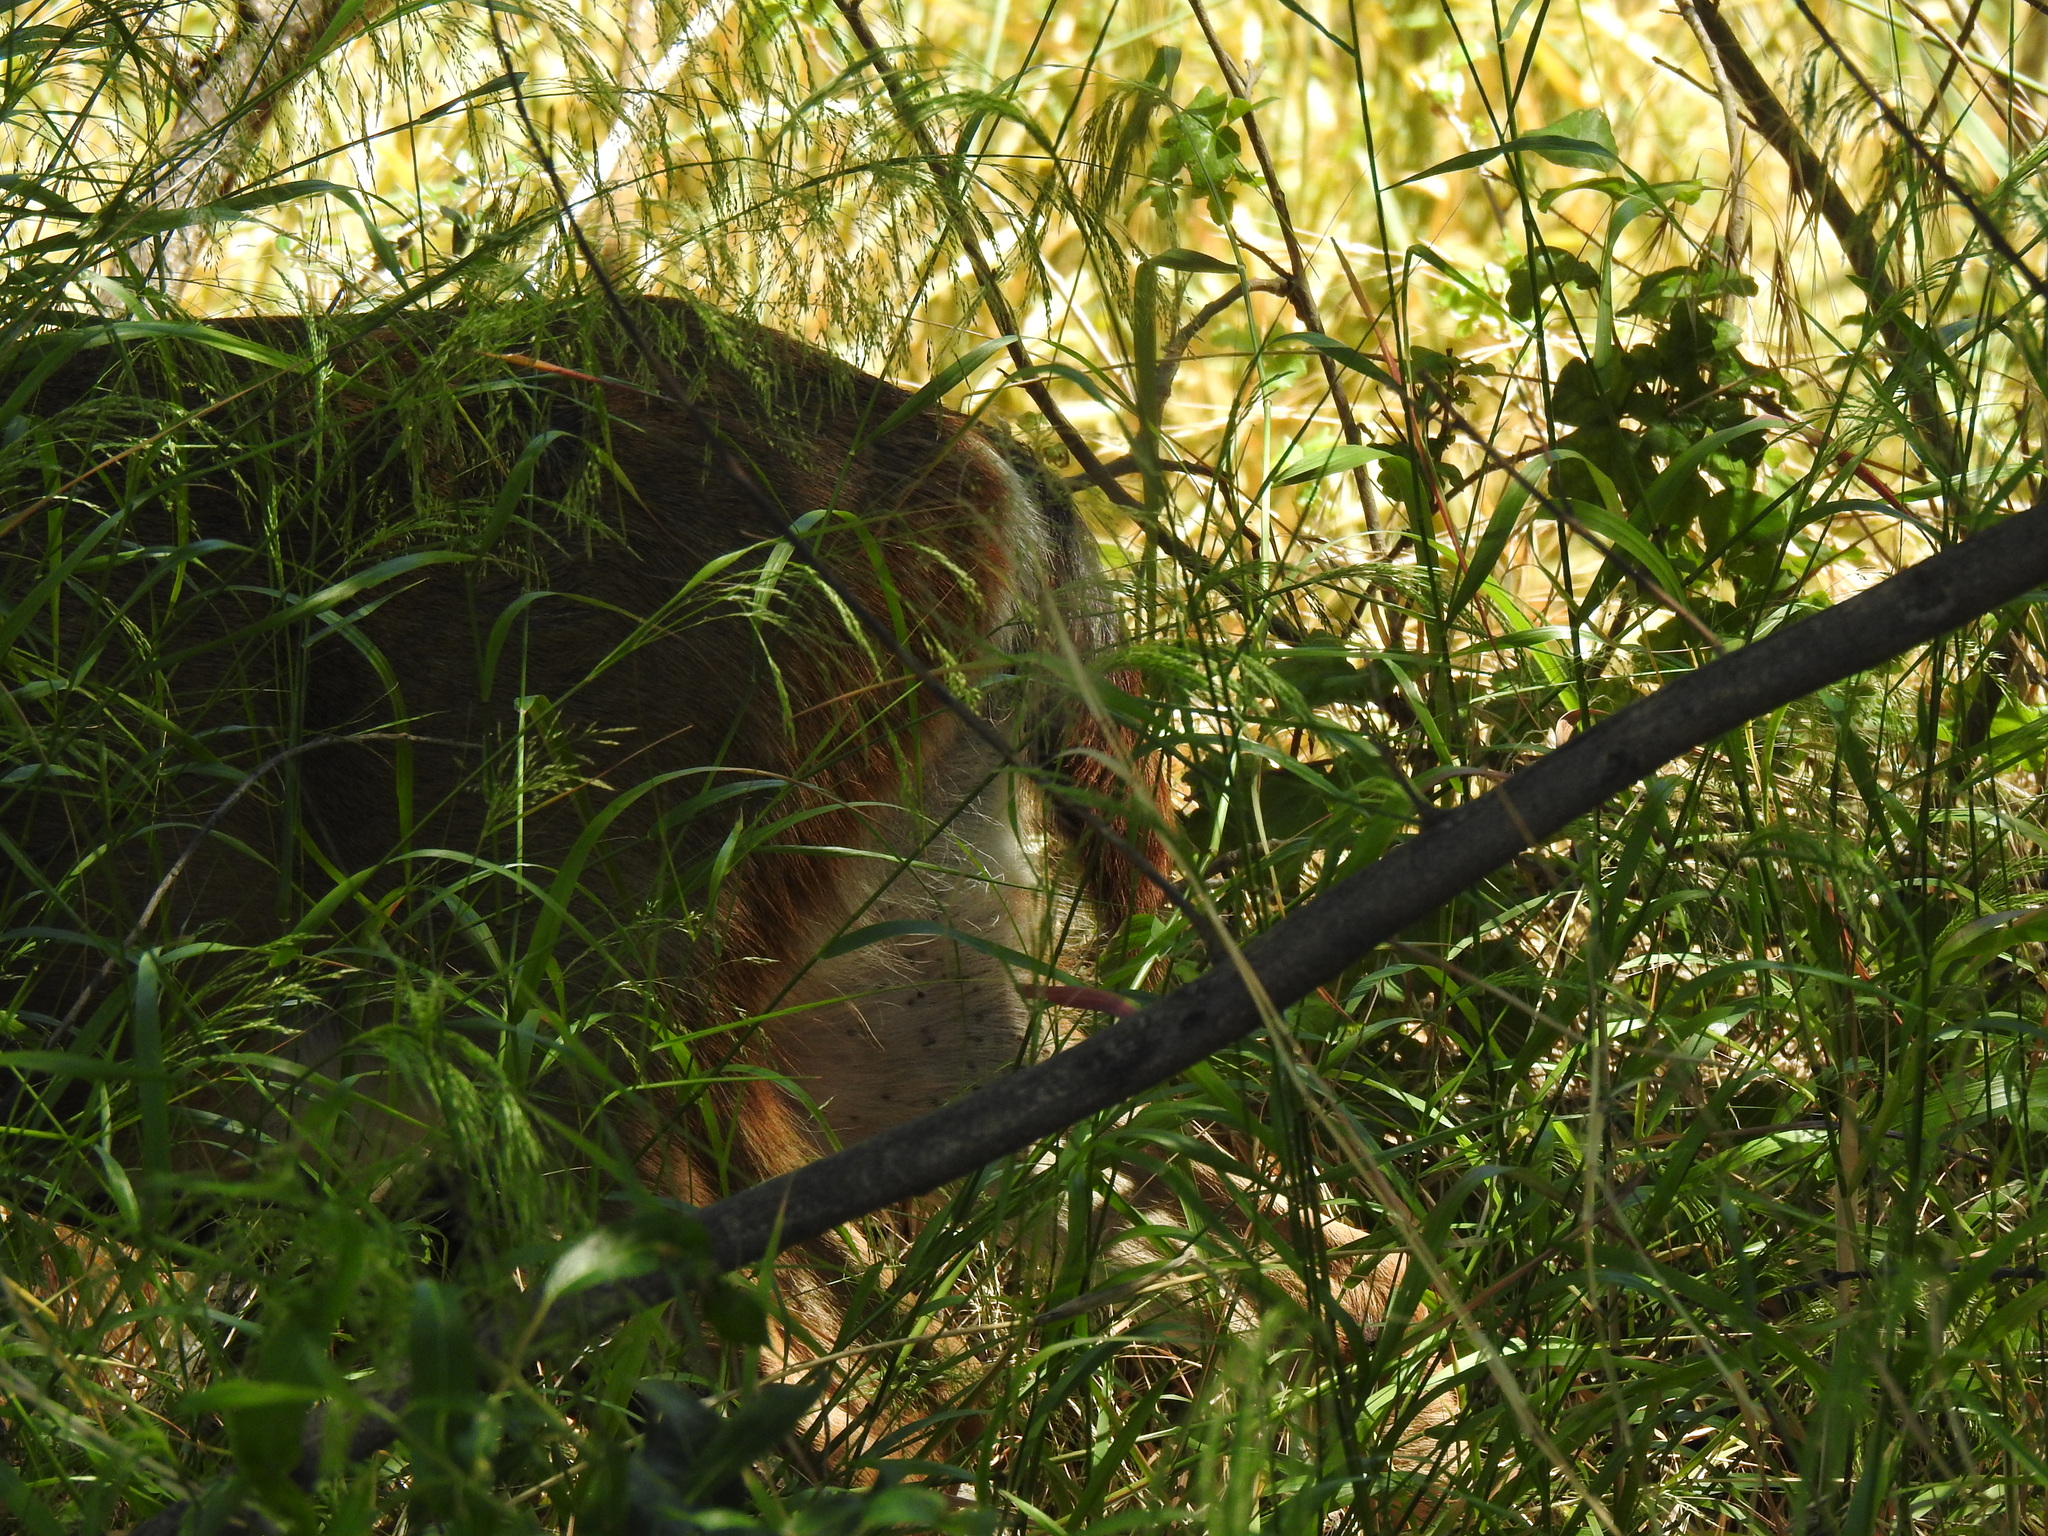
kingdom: Animalia
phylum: Chordata
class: Mammalia
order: Artiodactyla
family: Cervidae
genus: Odocoileus
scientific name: Odocoileus hemionus
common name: Mule deer
